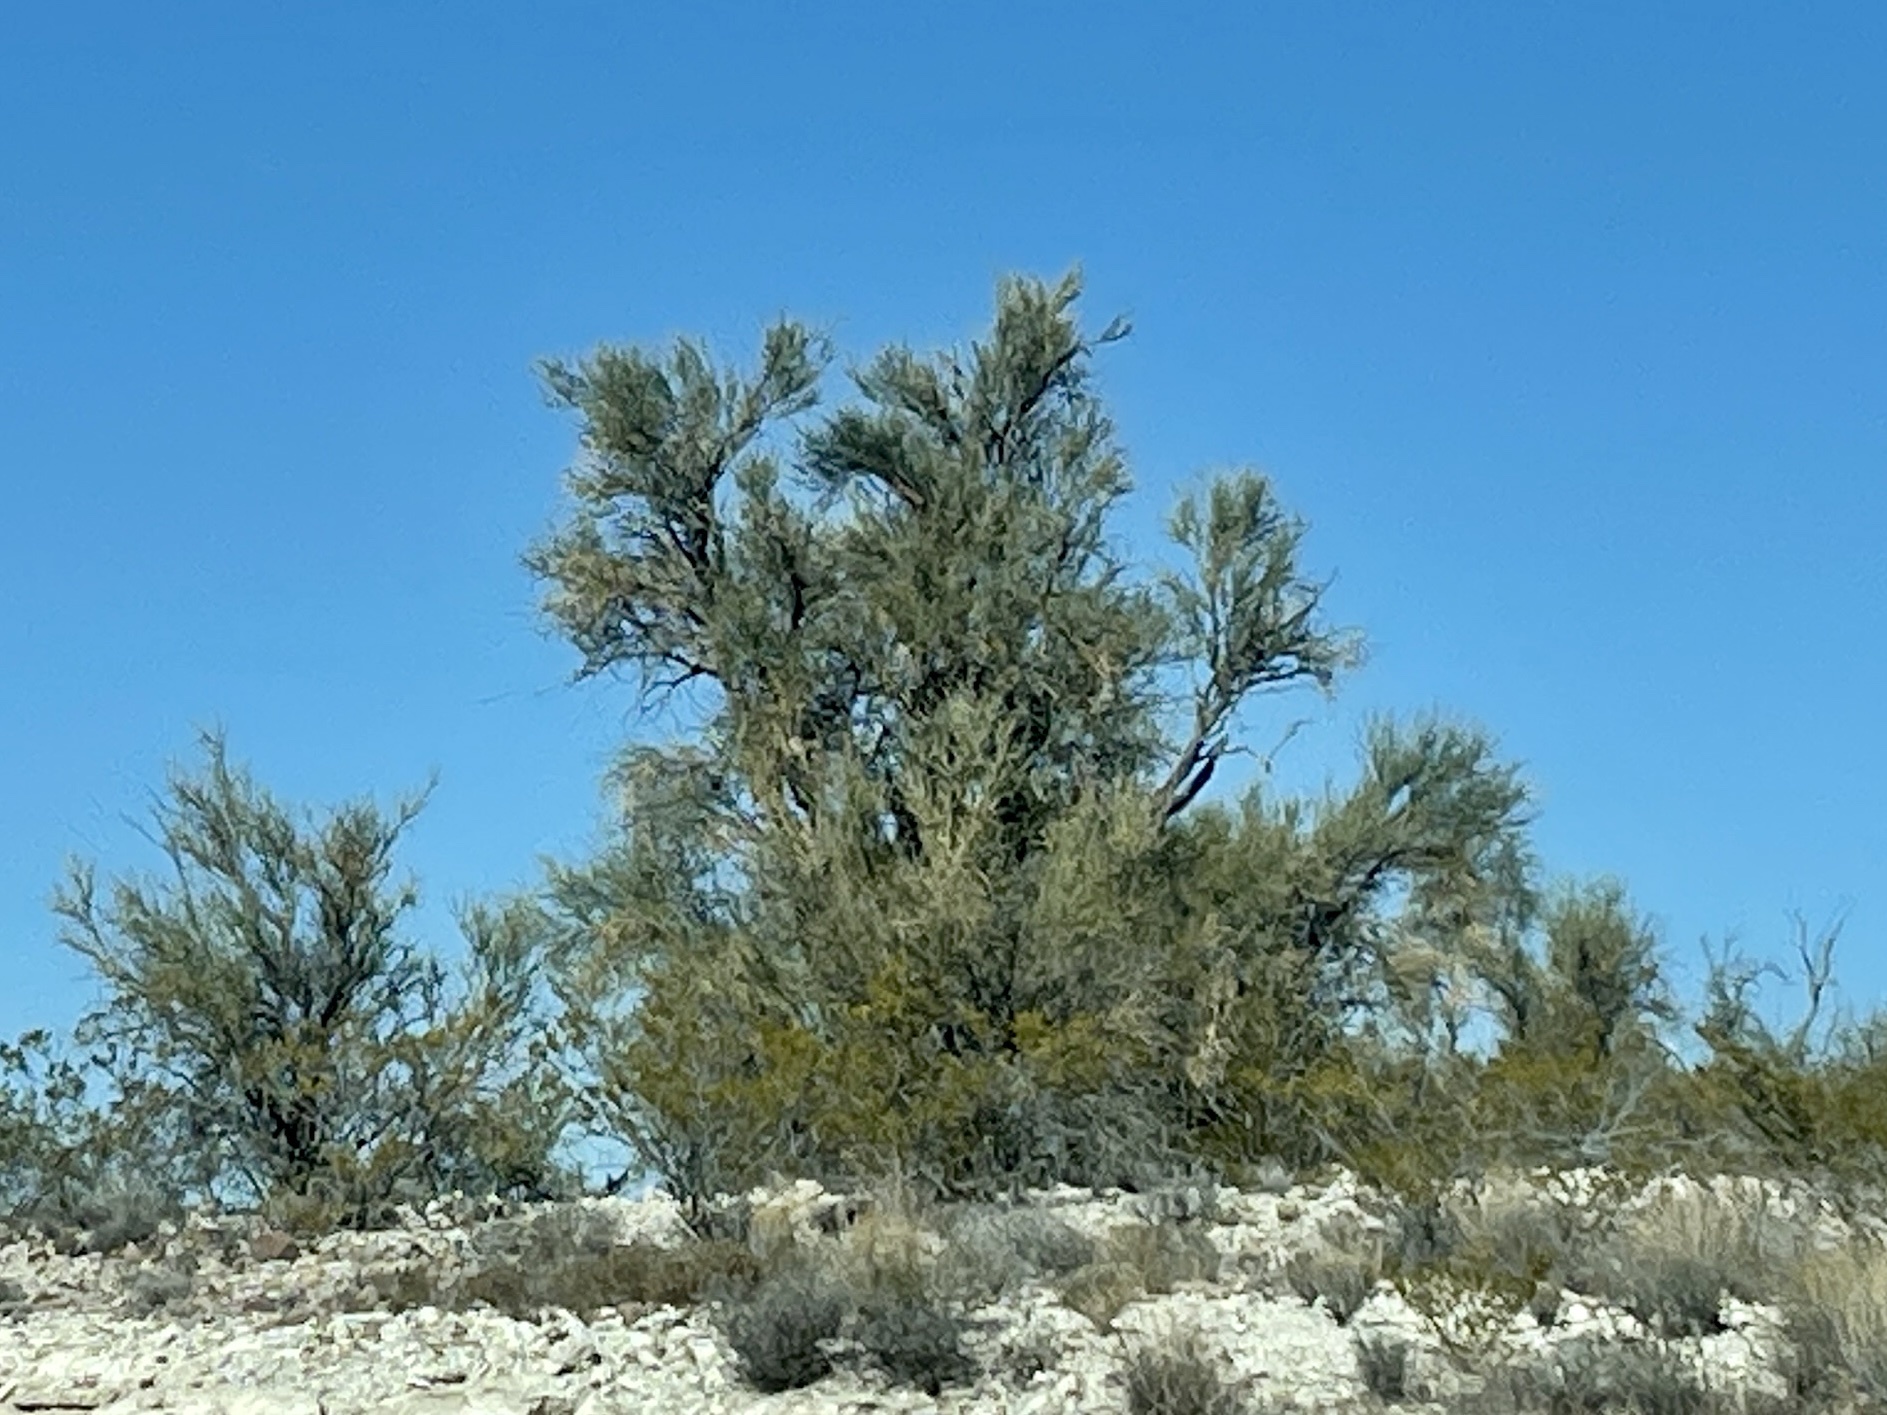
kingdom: Plantae
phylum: Tracheophyta
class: Magnoliopsida
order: Celastrales
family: Celastraceae
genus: Canotia
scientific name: Canotia holacantha
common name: Crucifixion thorns
